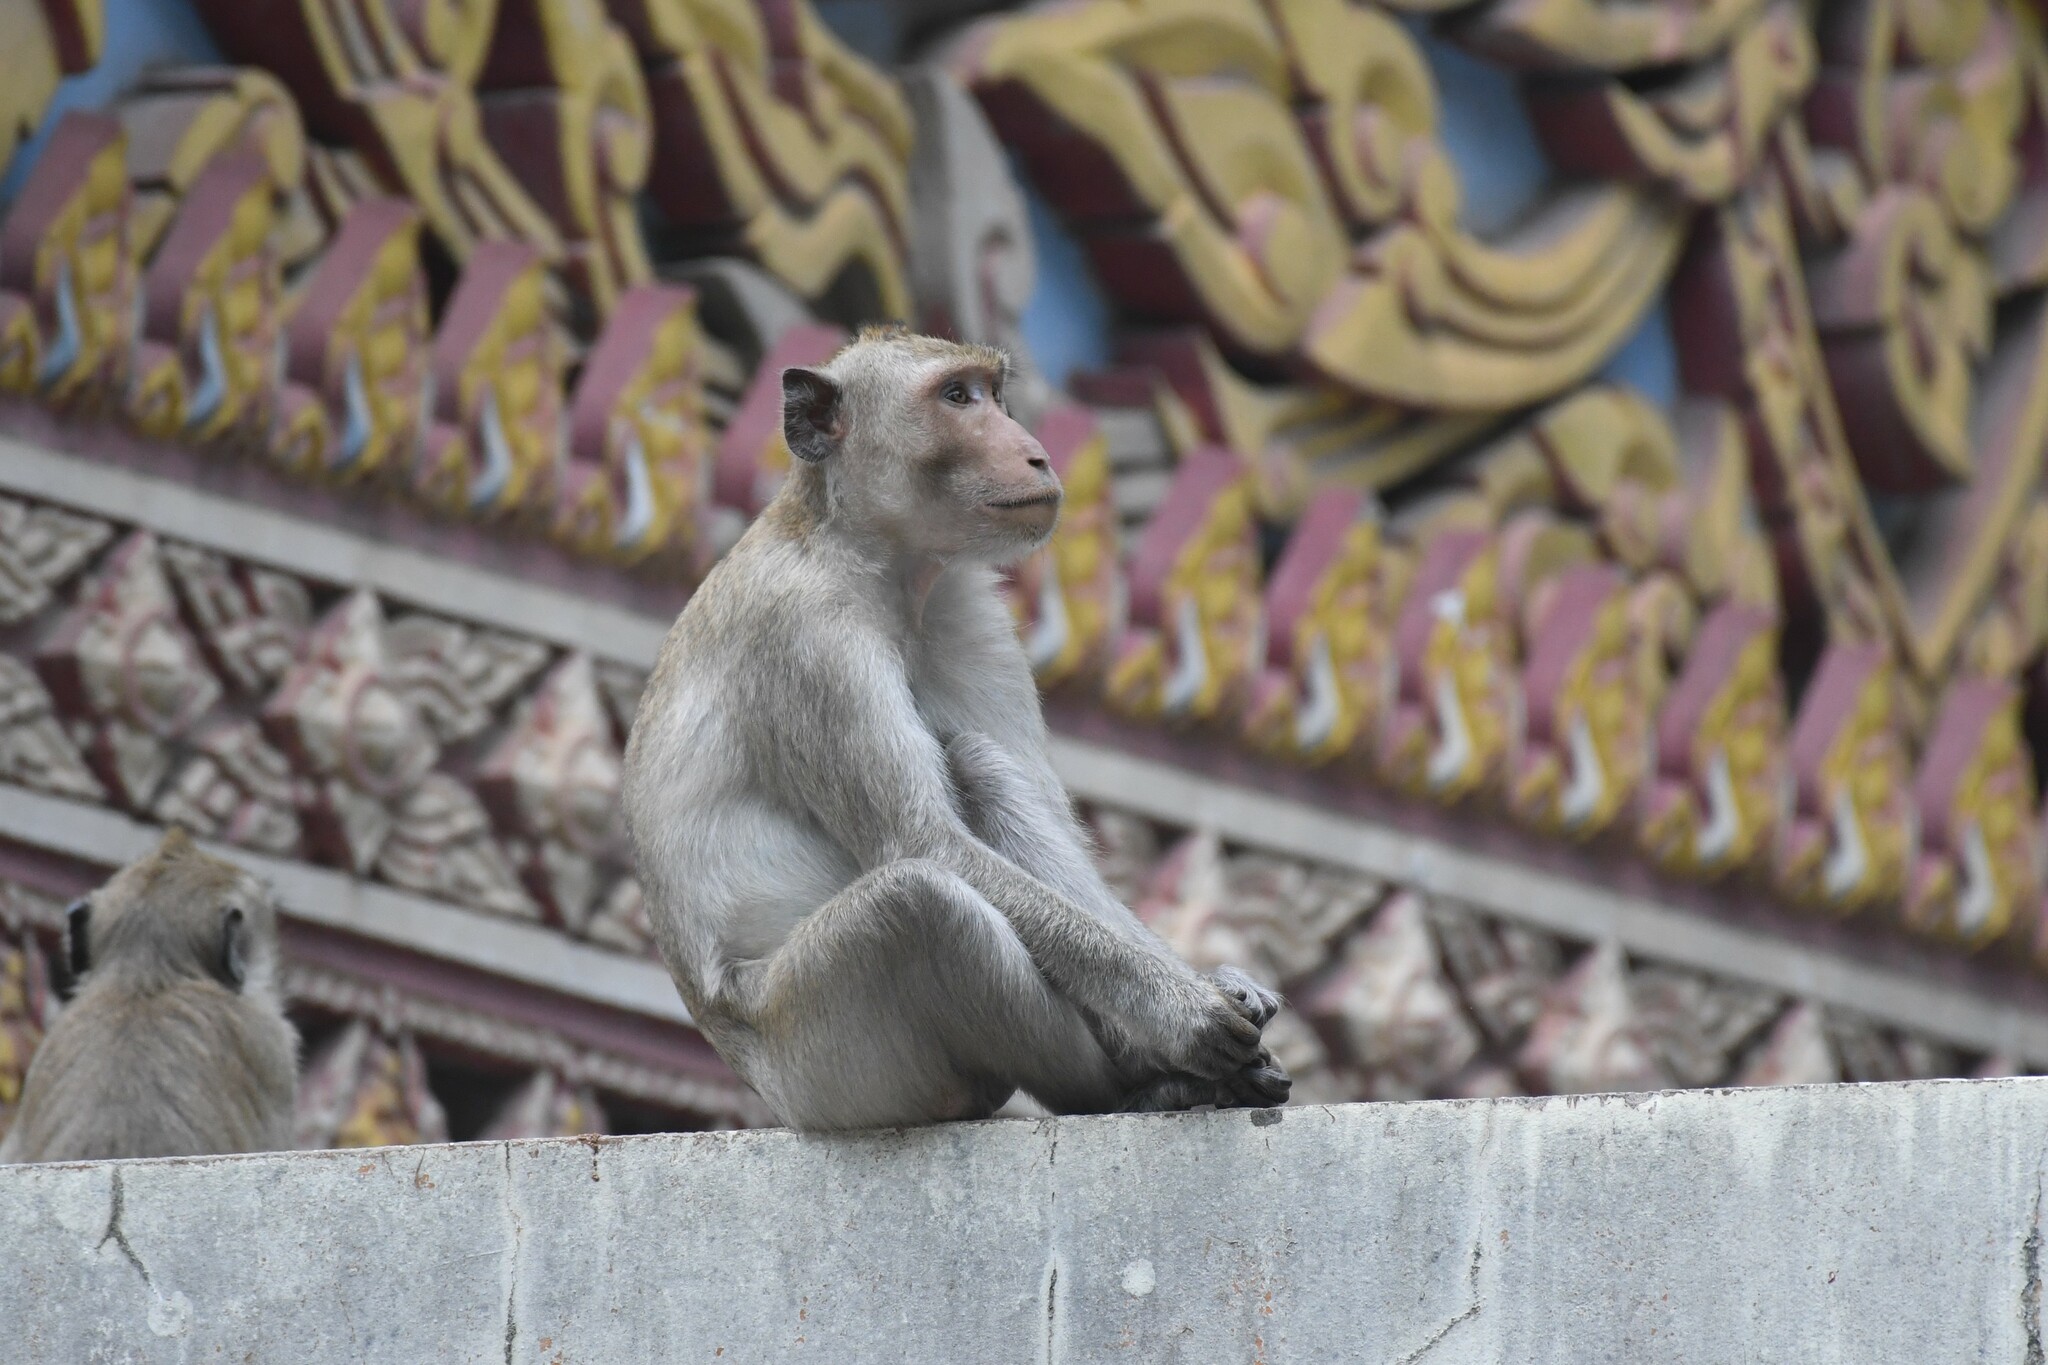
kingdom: Animalia
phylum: Chordata
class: Mammalia
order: Primates
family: Cercopithecidae
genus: Macaca
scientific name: Macaca fascicularis
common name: Crab-eating macaque
